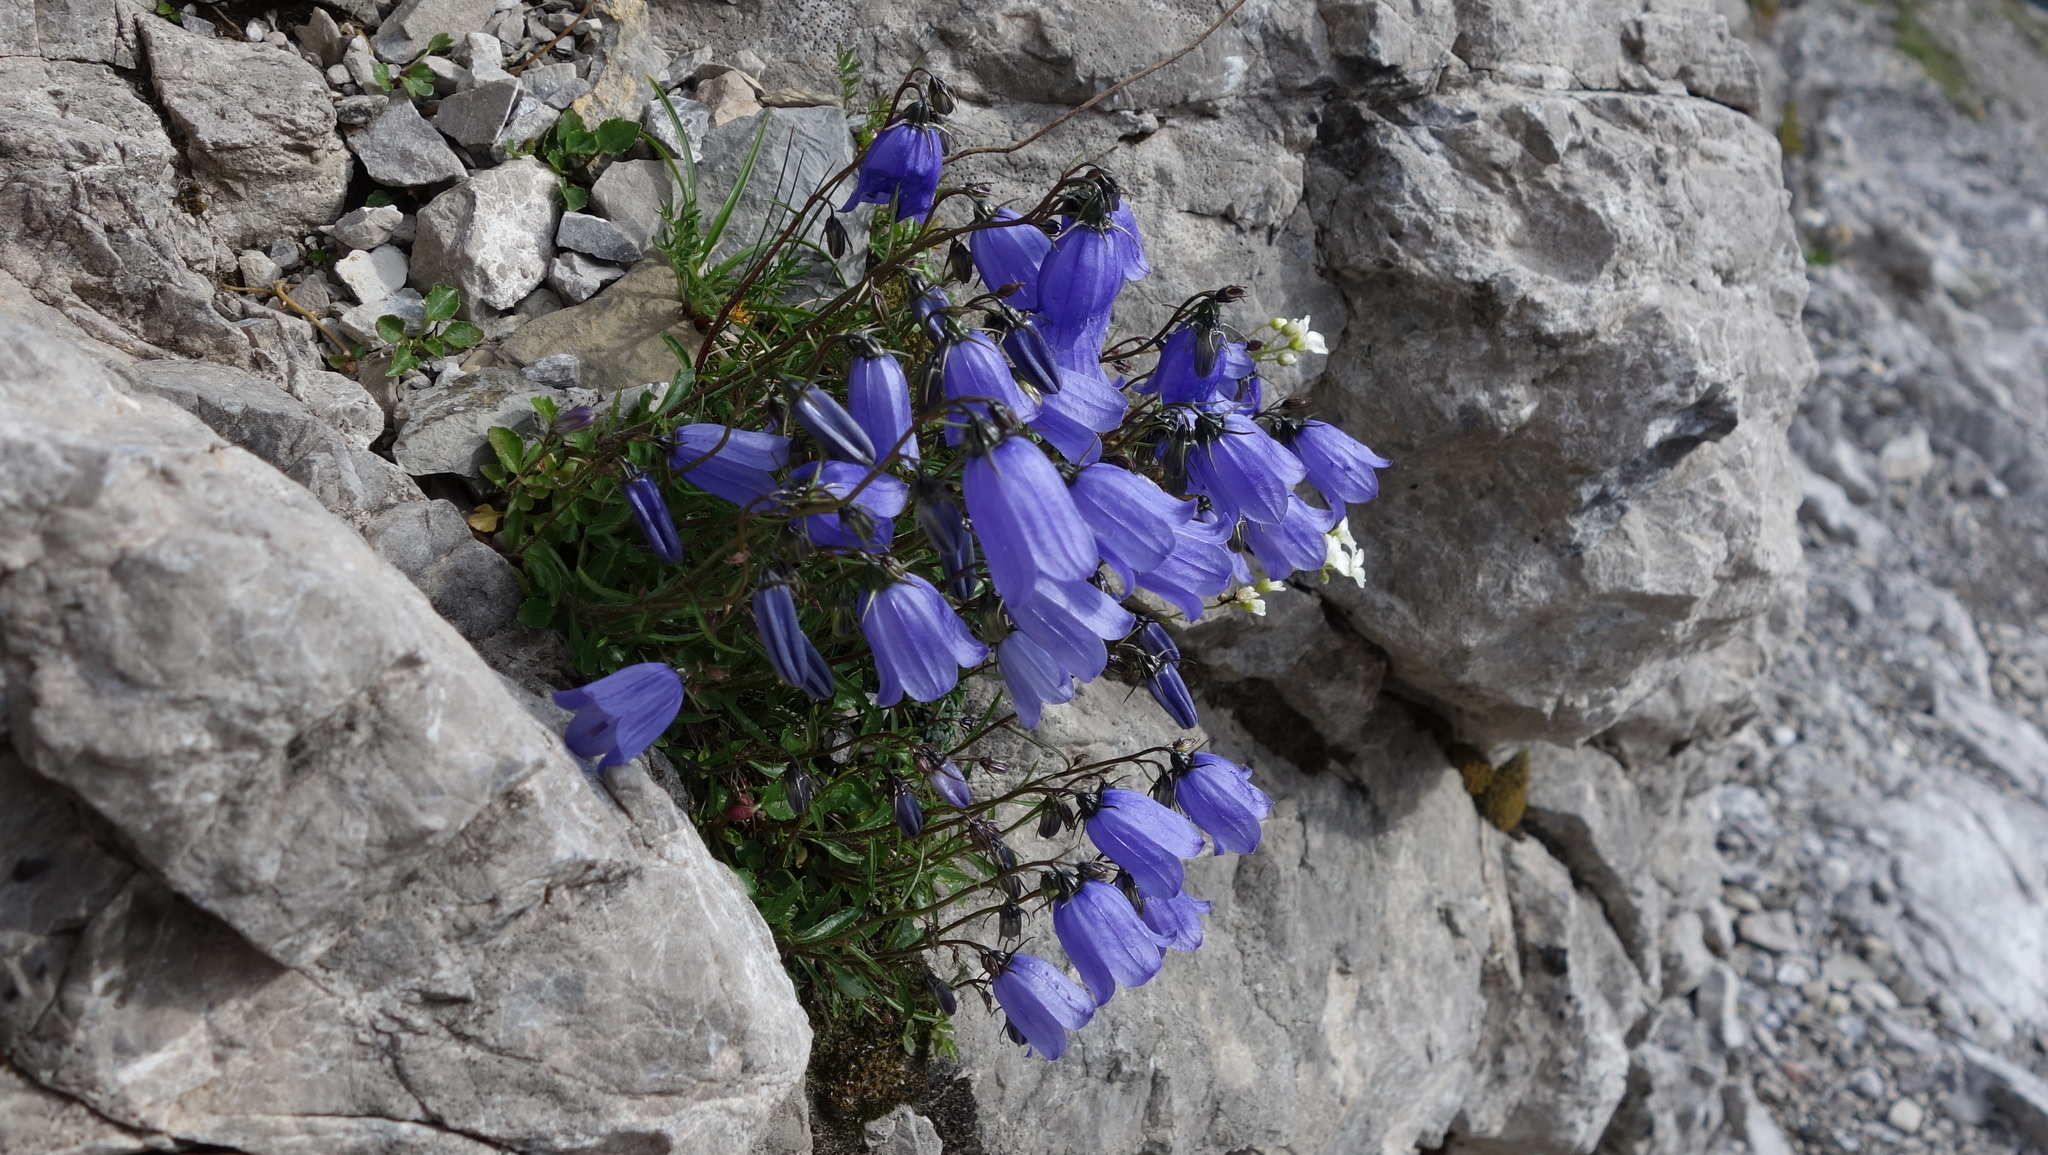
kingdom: Plantae
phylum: Tracheophyta
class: Magnoliopsida
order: Asterales
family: Campanulaceae
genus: Campanula
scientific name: Campanula cochleariifolia
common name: Fairies'-thimbles
